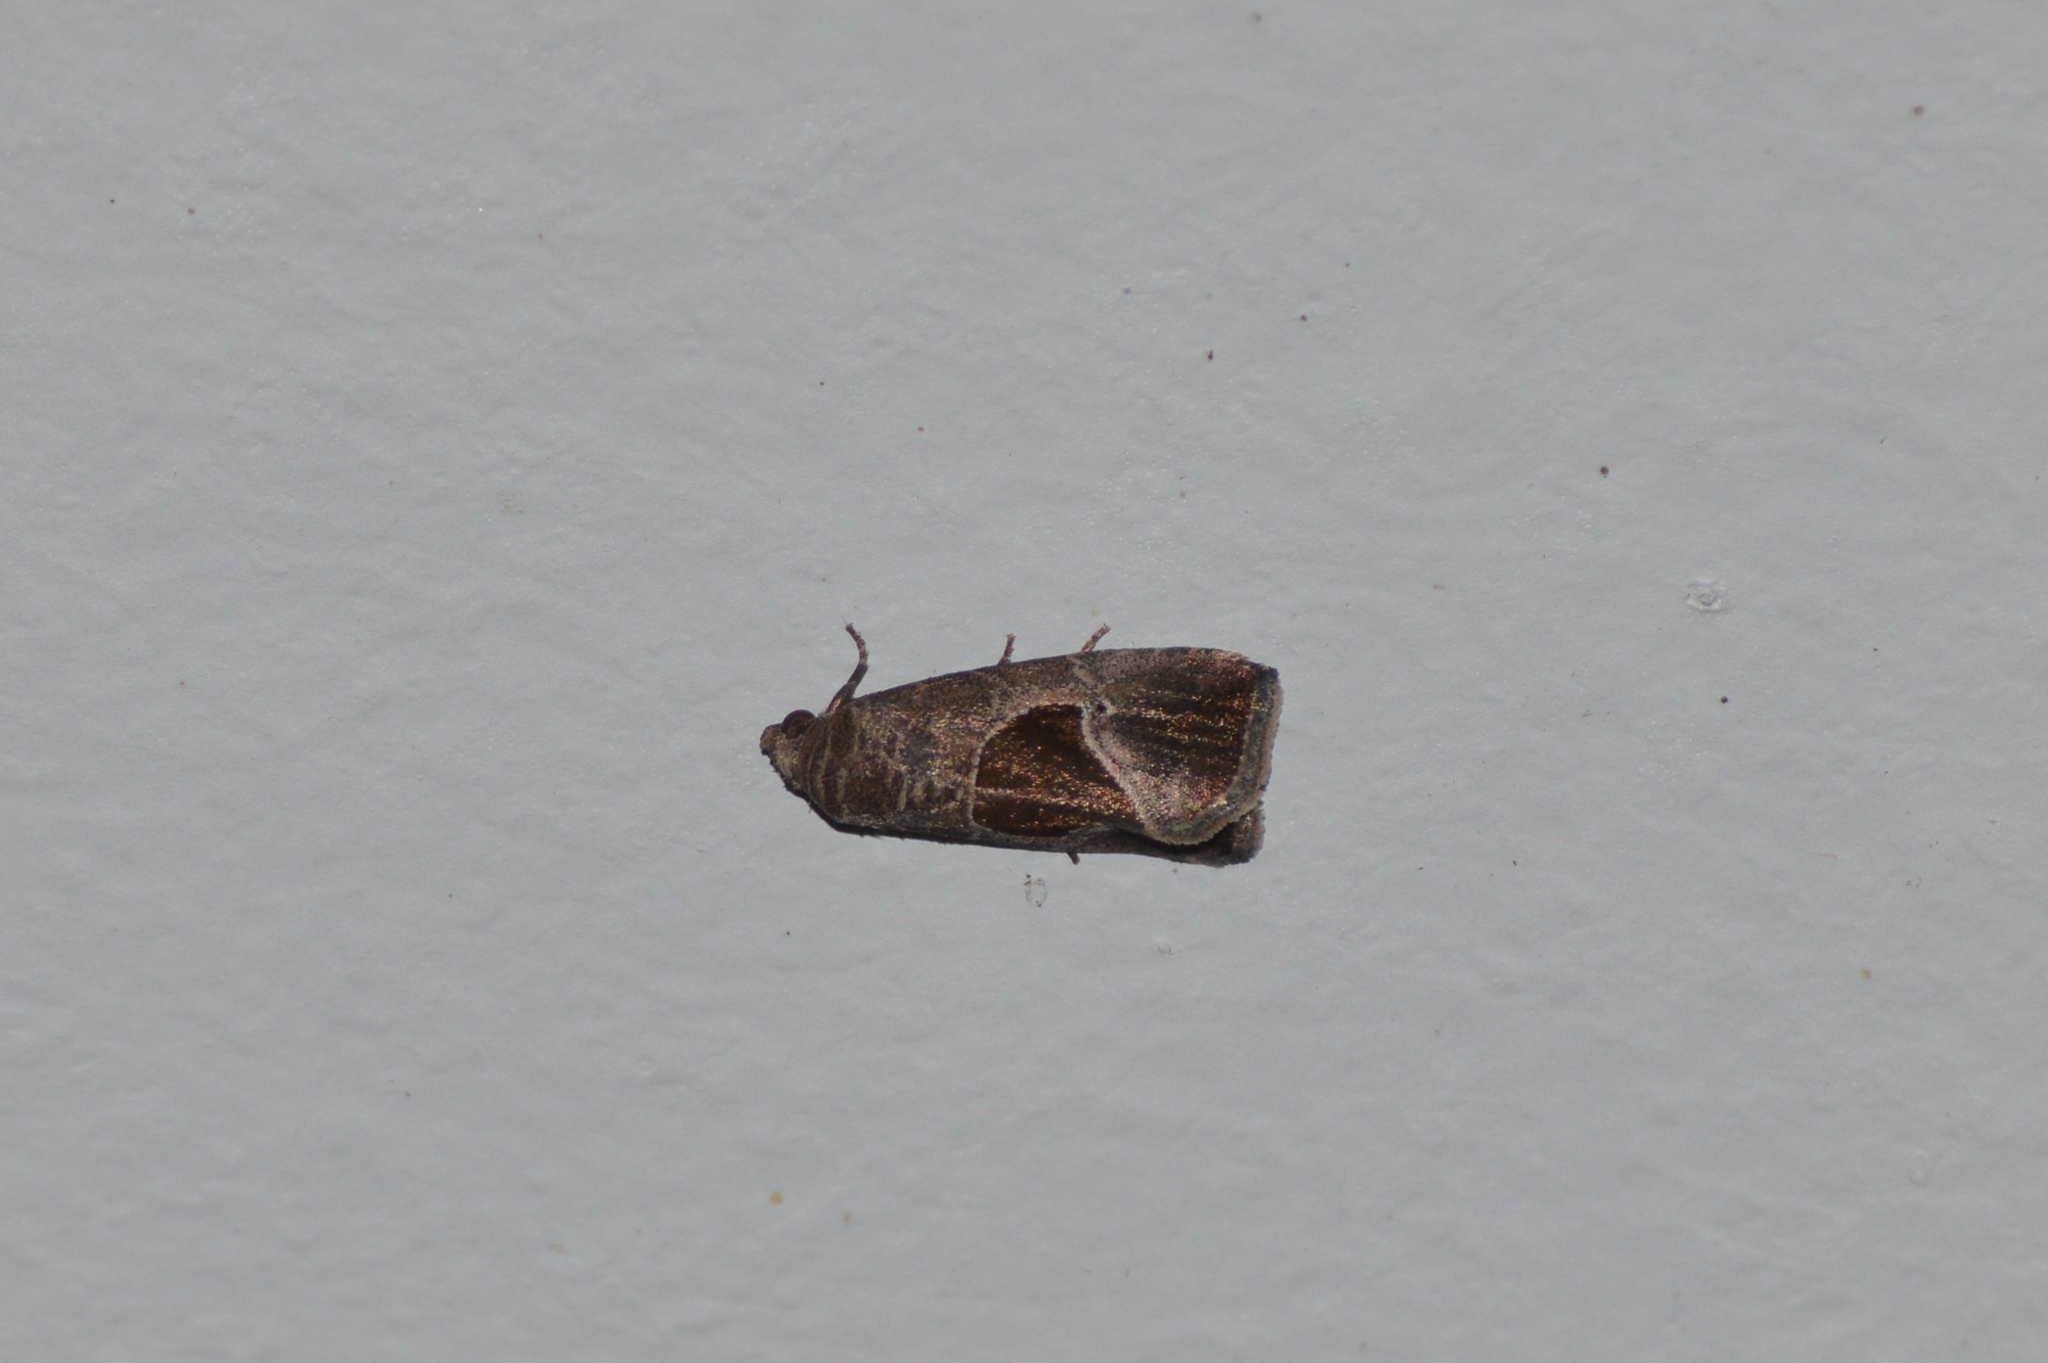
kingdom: Animalia
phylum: Arthropoda
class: Insecta
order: Lepidoptera
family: Noctuidae
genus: Elaphria
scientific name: Elaphria deltoides
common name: Cutworm moth
